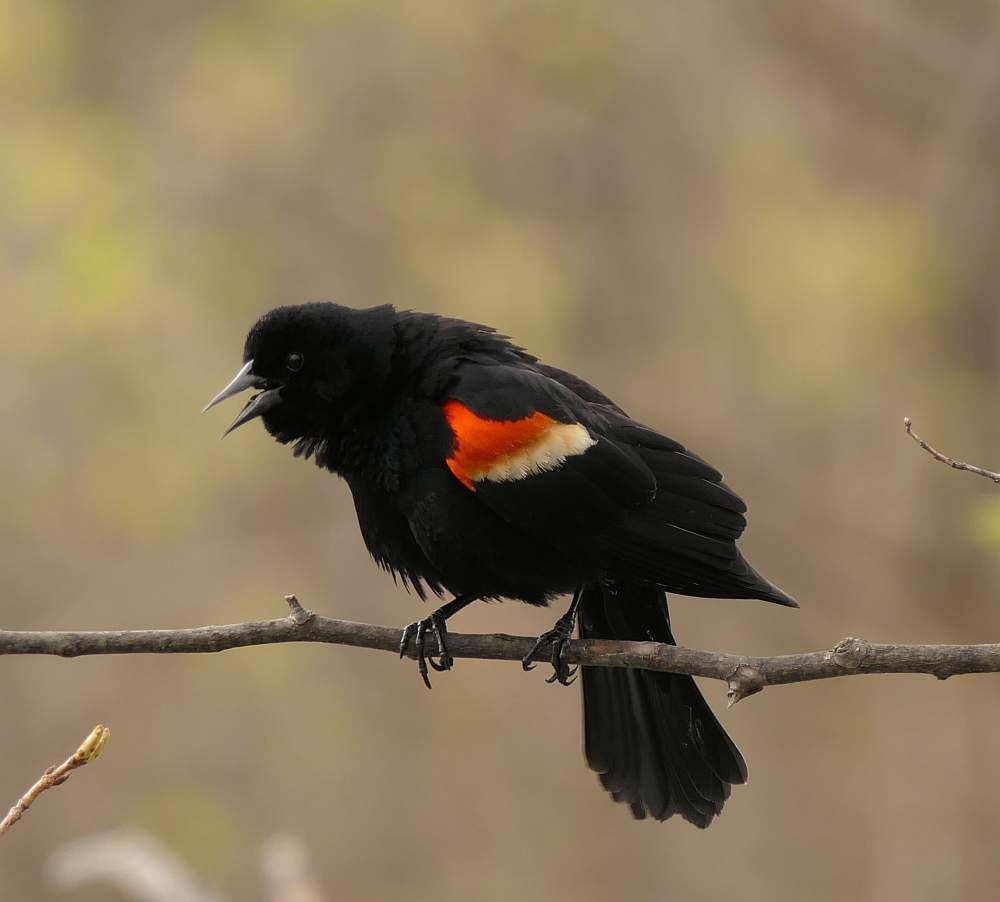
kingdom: Animalia
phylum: Chordata
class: Aves
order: Passeriformes
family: Icteridae
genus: Agelaius
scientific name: Agelaius phoeniceus
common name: Red-winged blackbird
